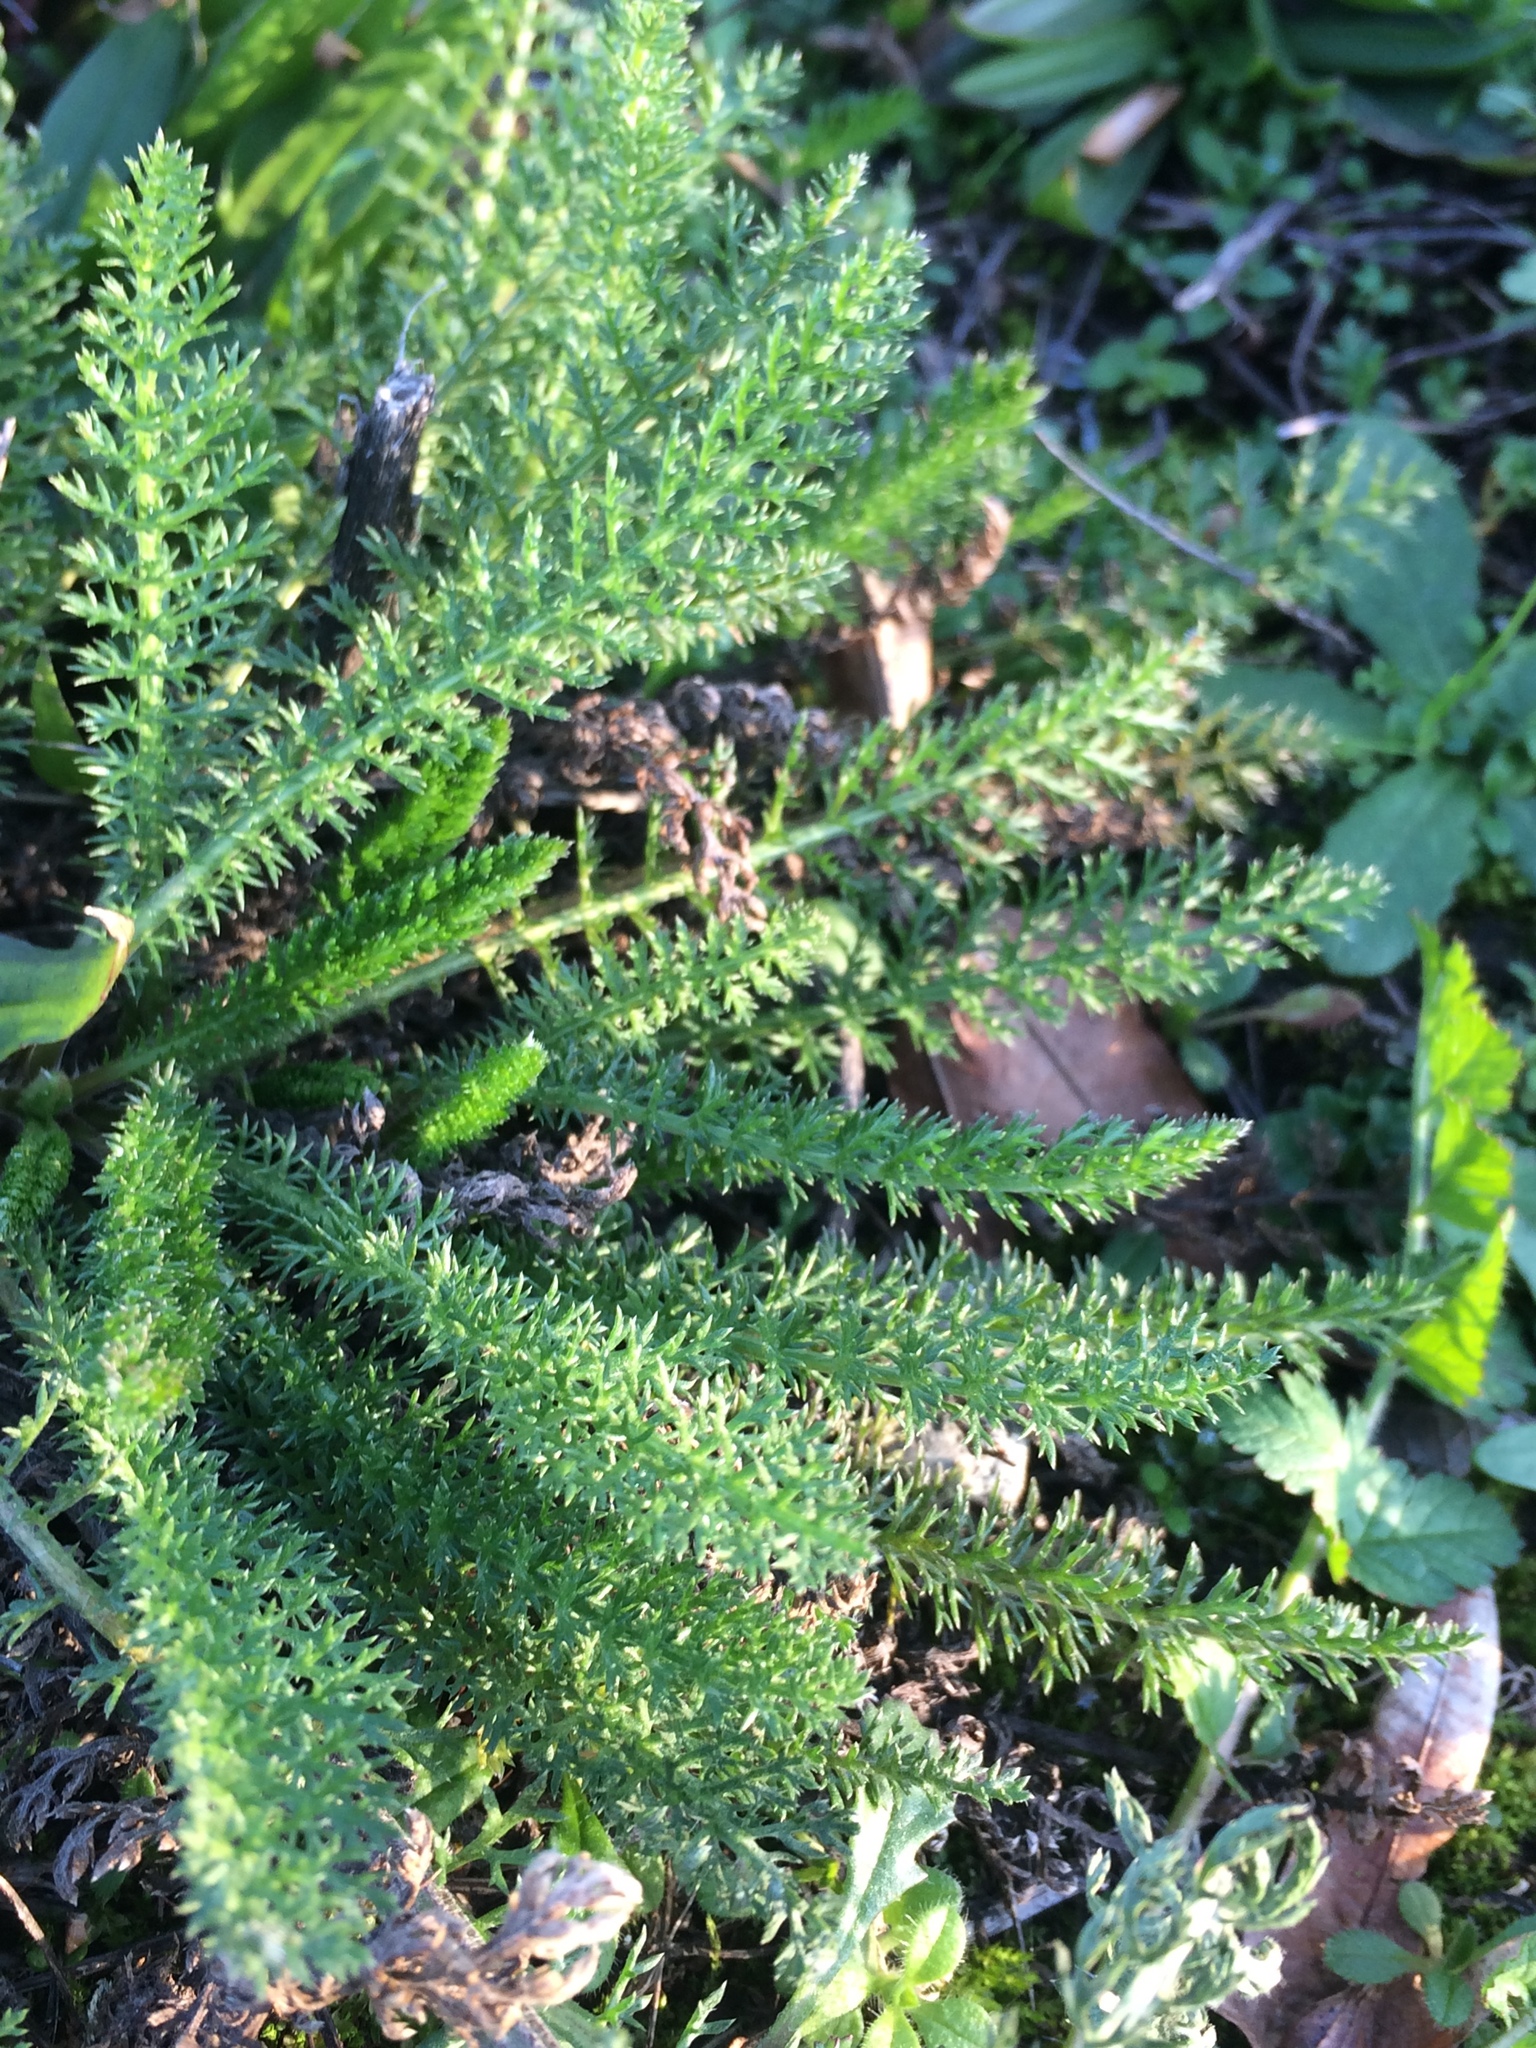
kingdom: Plantae
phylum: Tracheophyta
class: Magnoliopsida
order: Asterales
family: Asteraceae
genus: Achillea
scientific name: Achillea millefolium
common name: Yarrow
